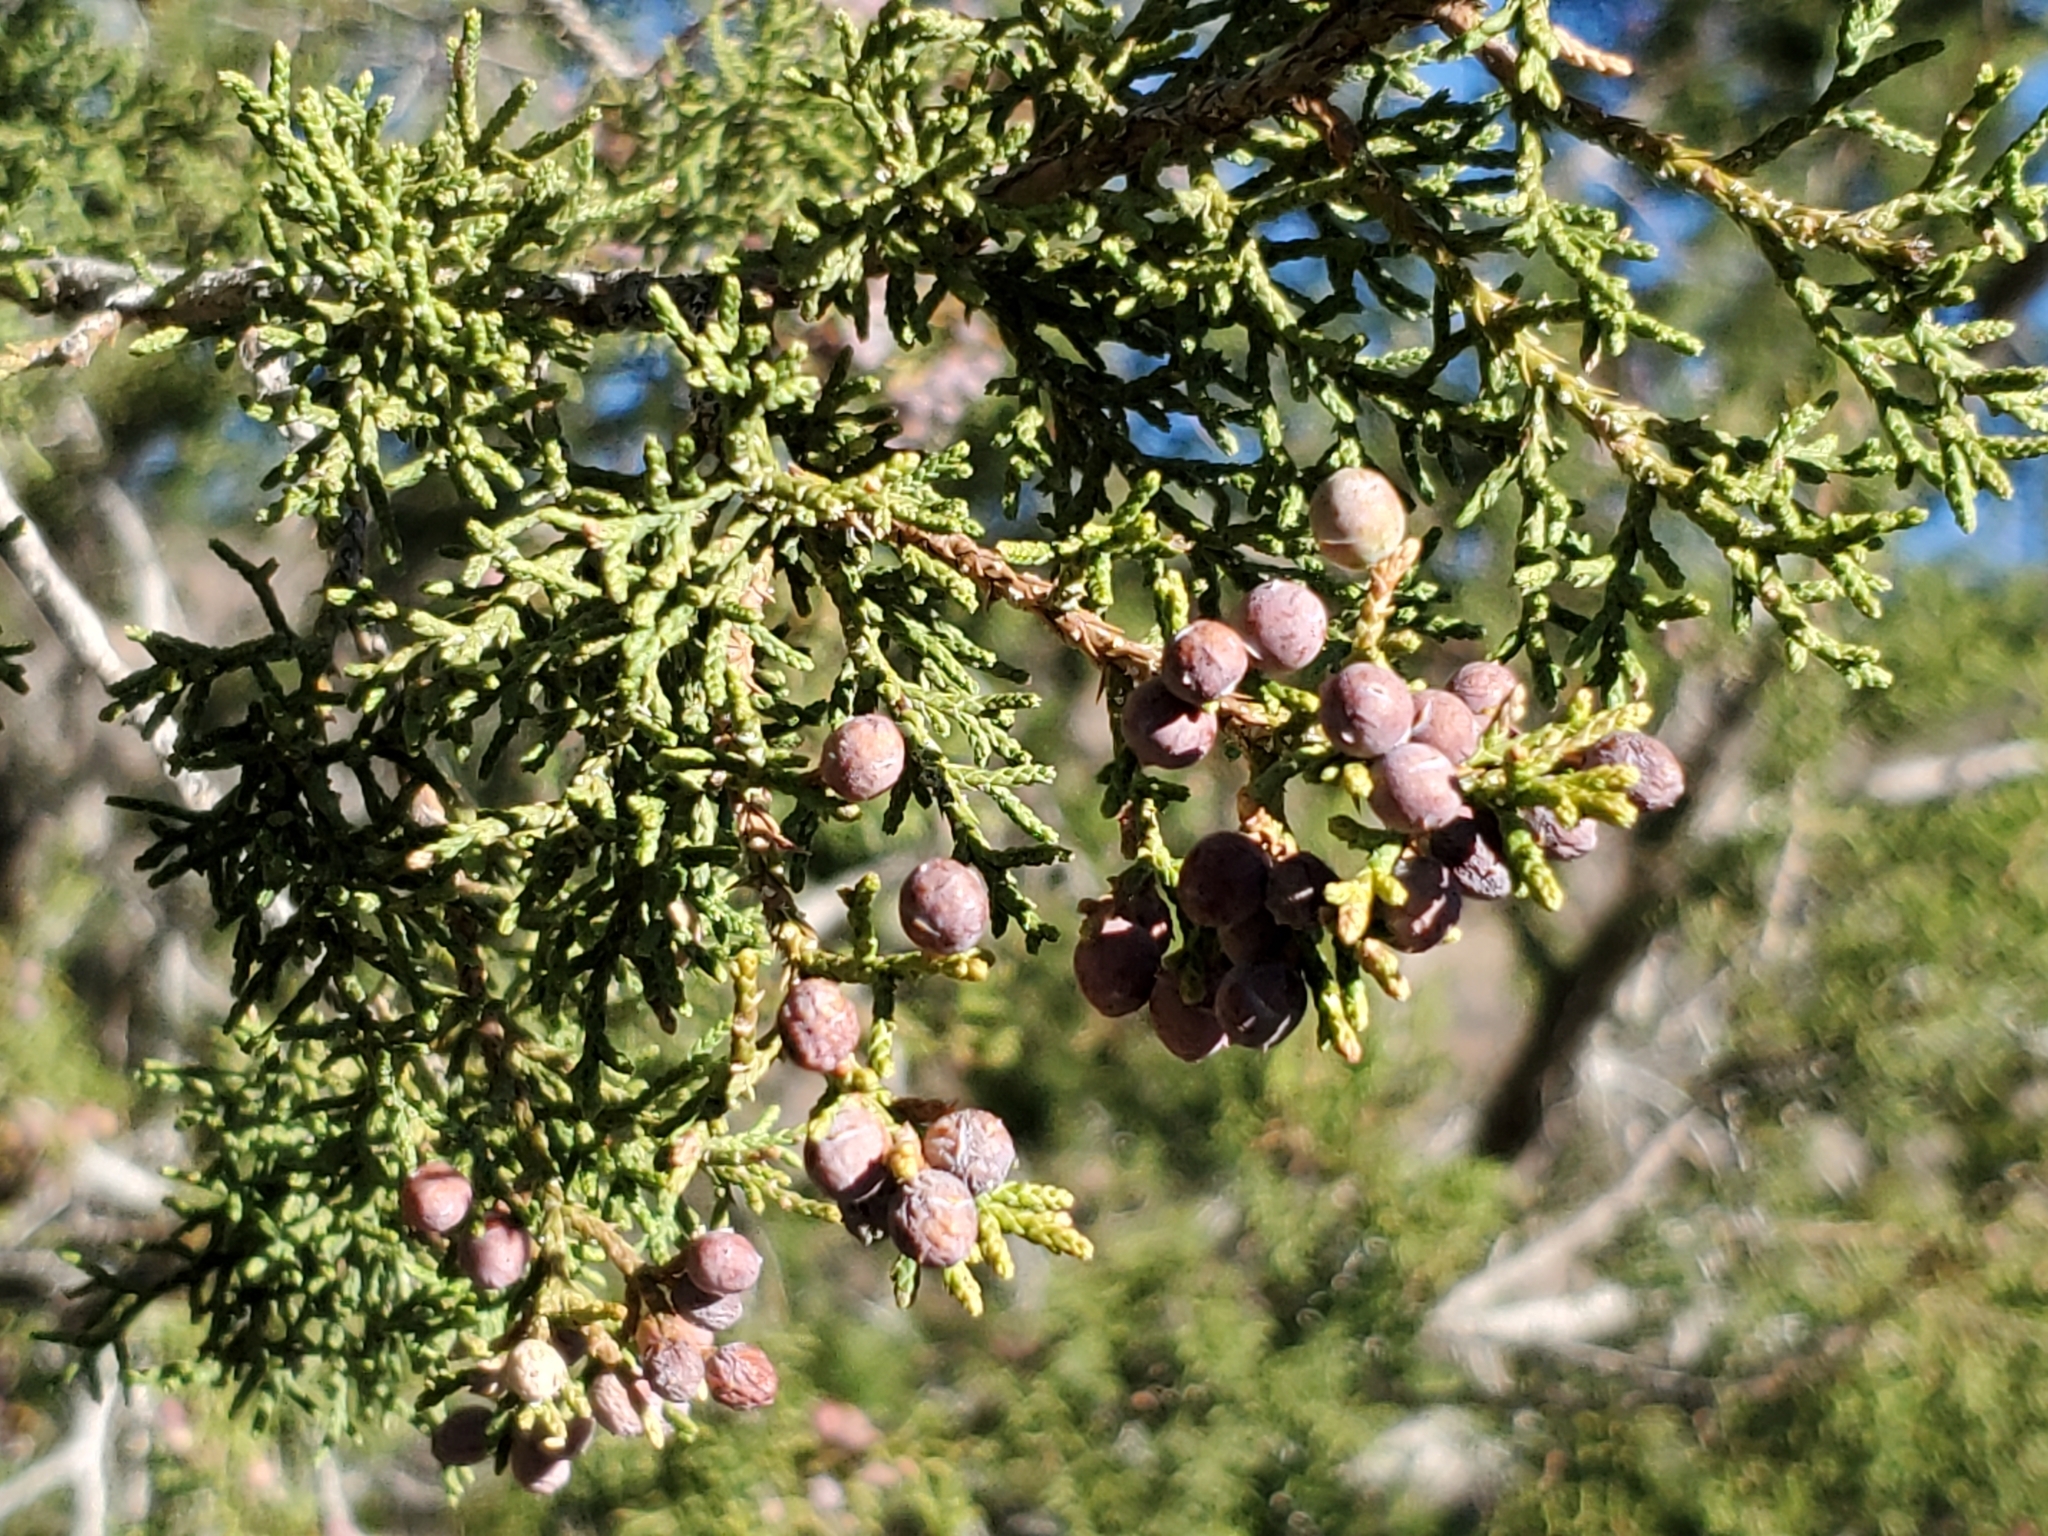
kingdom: Plantae
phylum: Tracheophyta
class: Pinopsida
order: Pinales
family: Cupressaceae
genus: Juniperus
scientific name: Juniperus coahuilensis
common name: Roseberry
